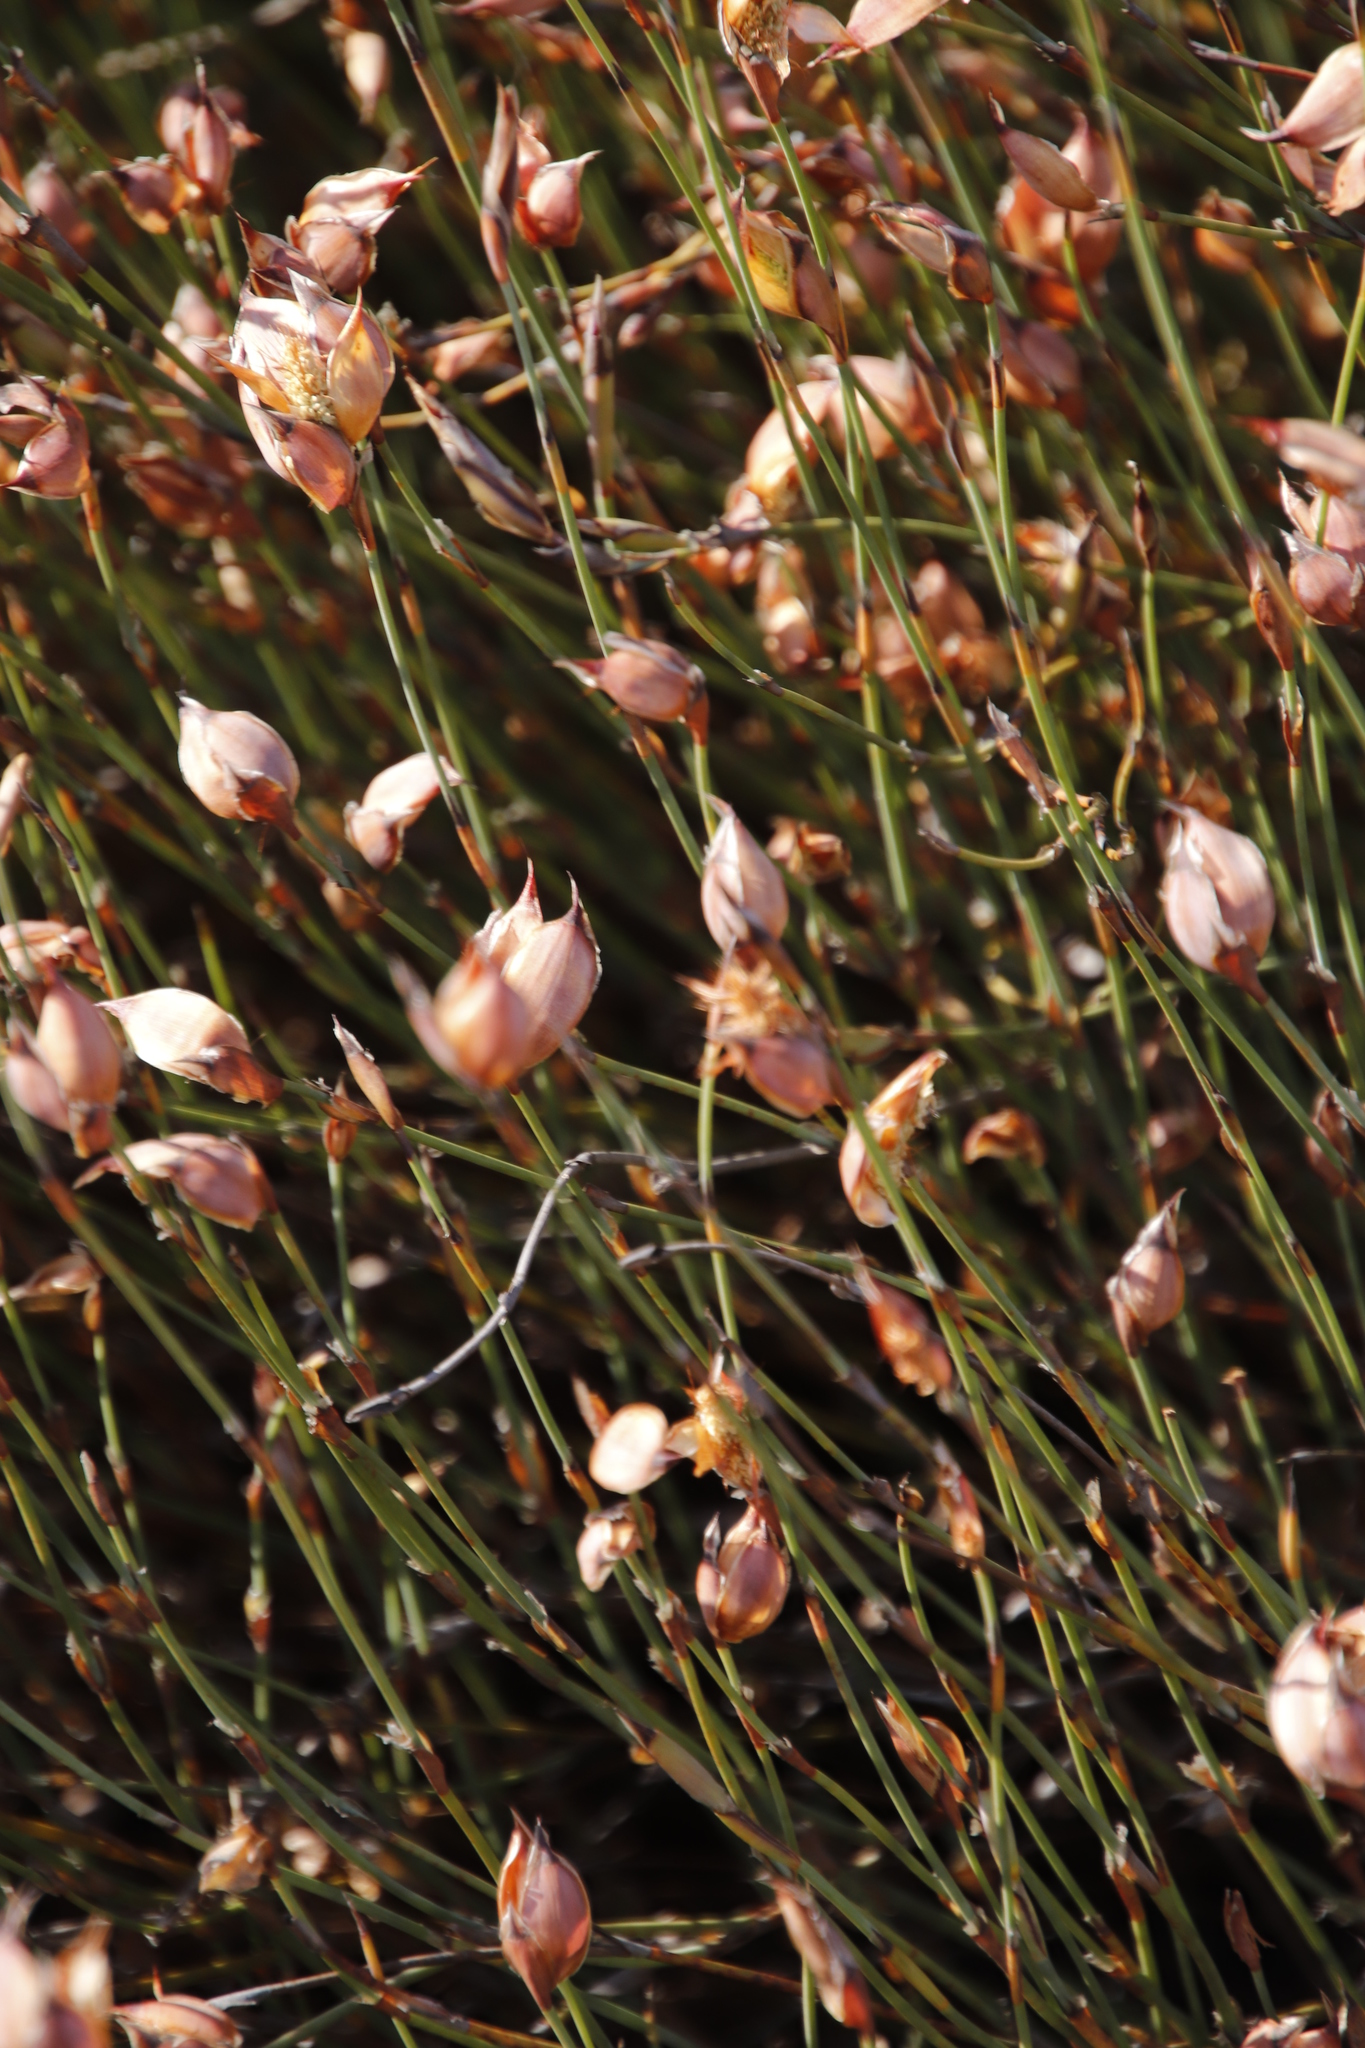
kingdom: Plantae
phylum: Tracheophyta
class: Liliopsida
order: Poales
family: Restionaceae
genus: Willdenowia
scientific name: Willdenowia incurvata
